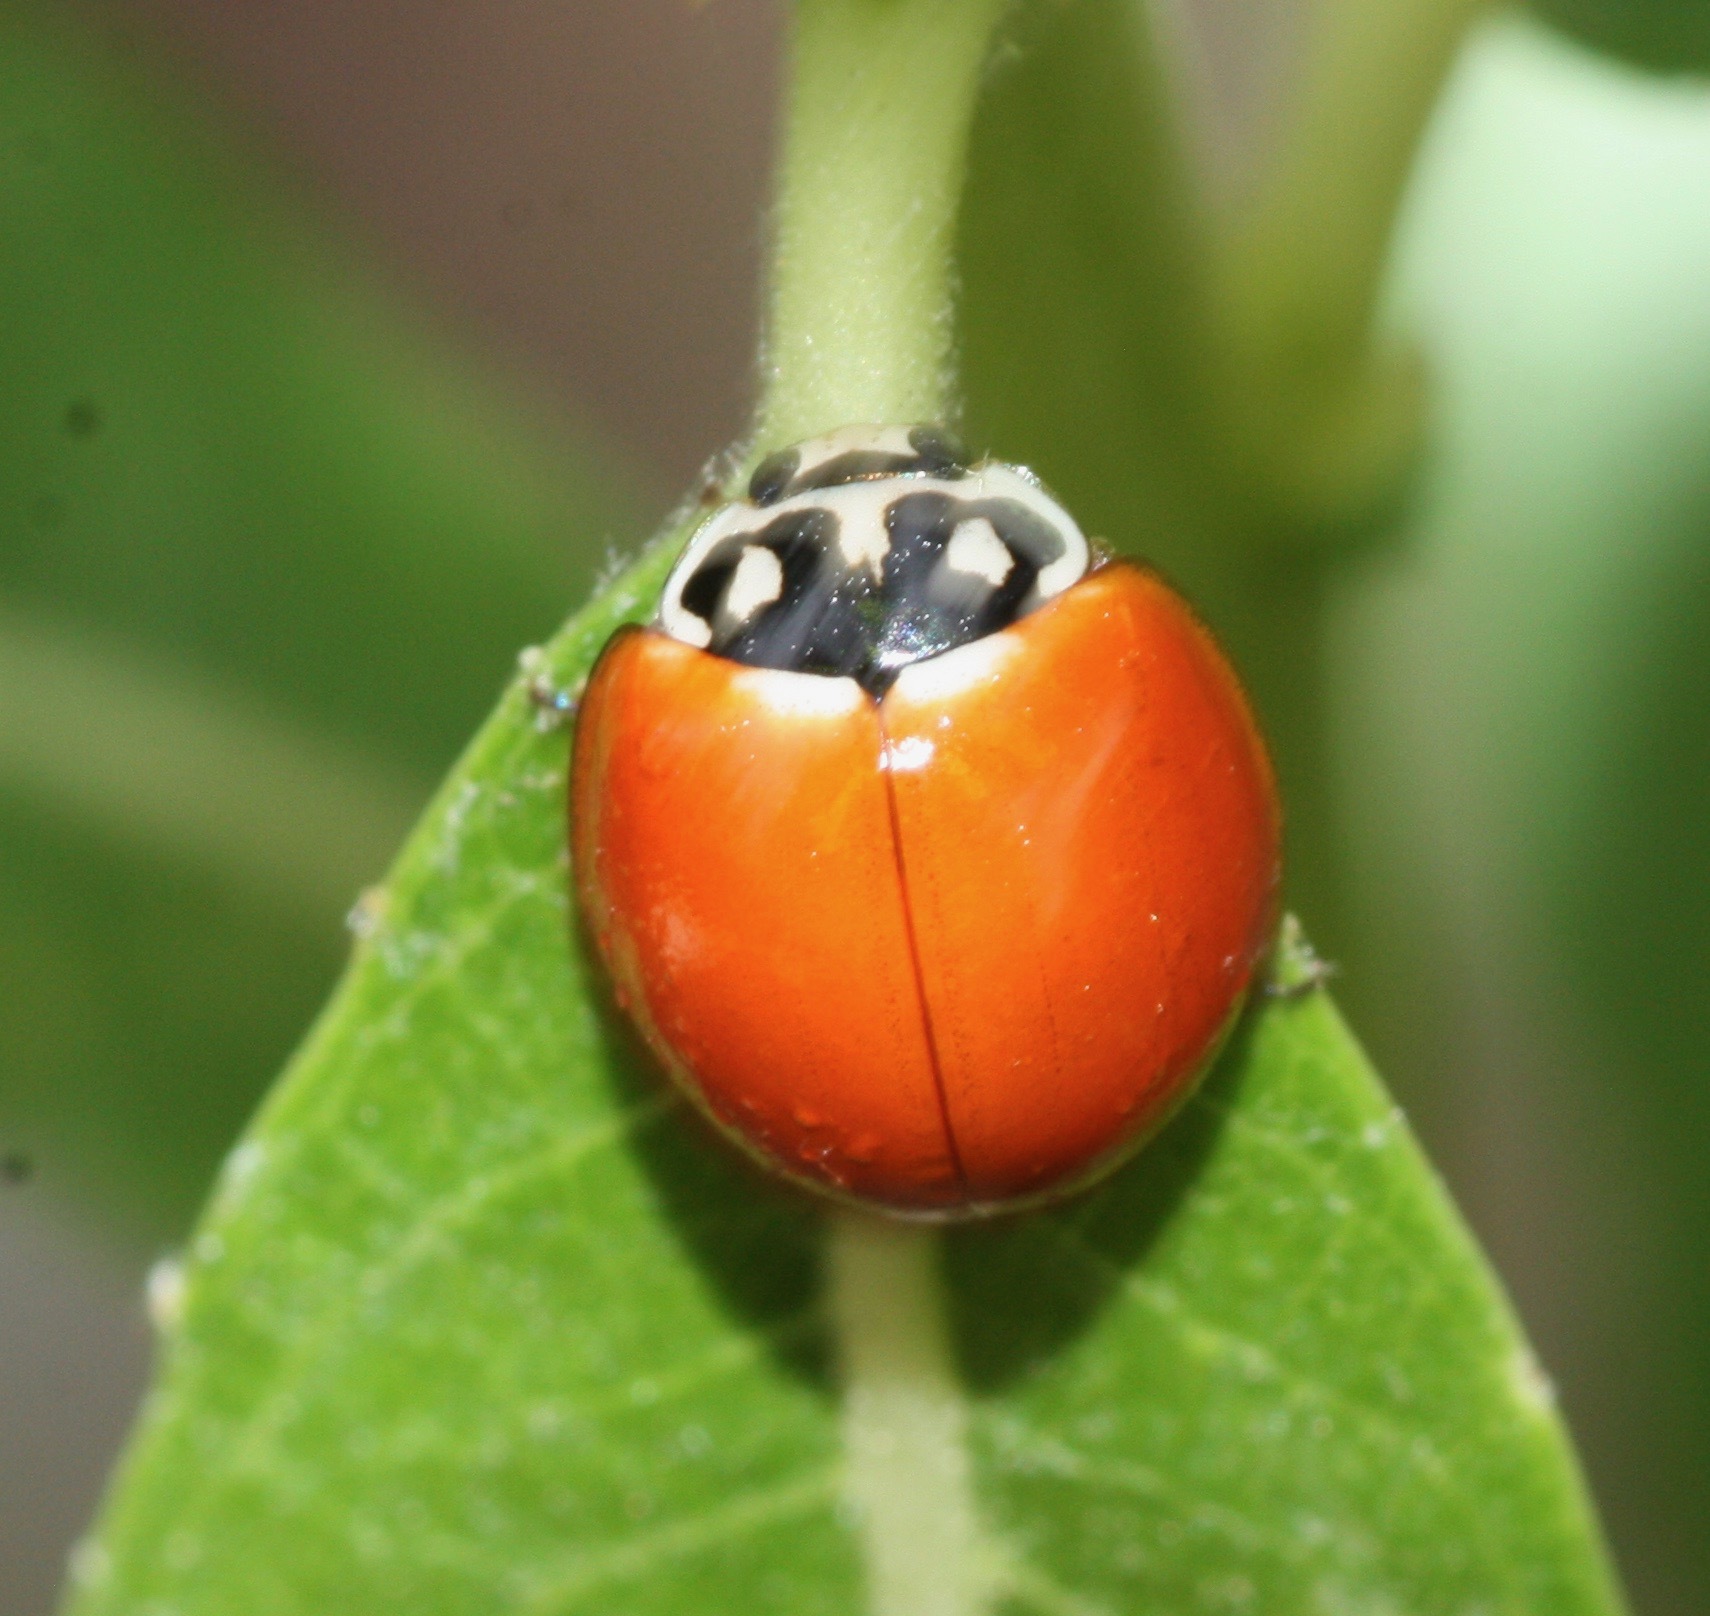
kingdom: Animalia
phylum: Arthropoda
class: Insecta
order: Coleoptera
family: Coccinellidae
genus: Cycloneda
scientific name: Cycloneda sanguinea
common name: Ladybird beetle
